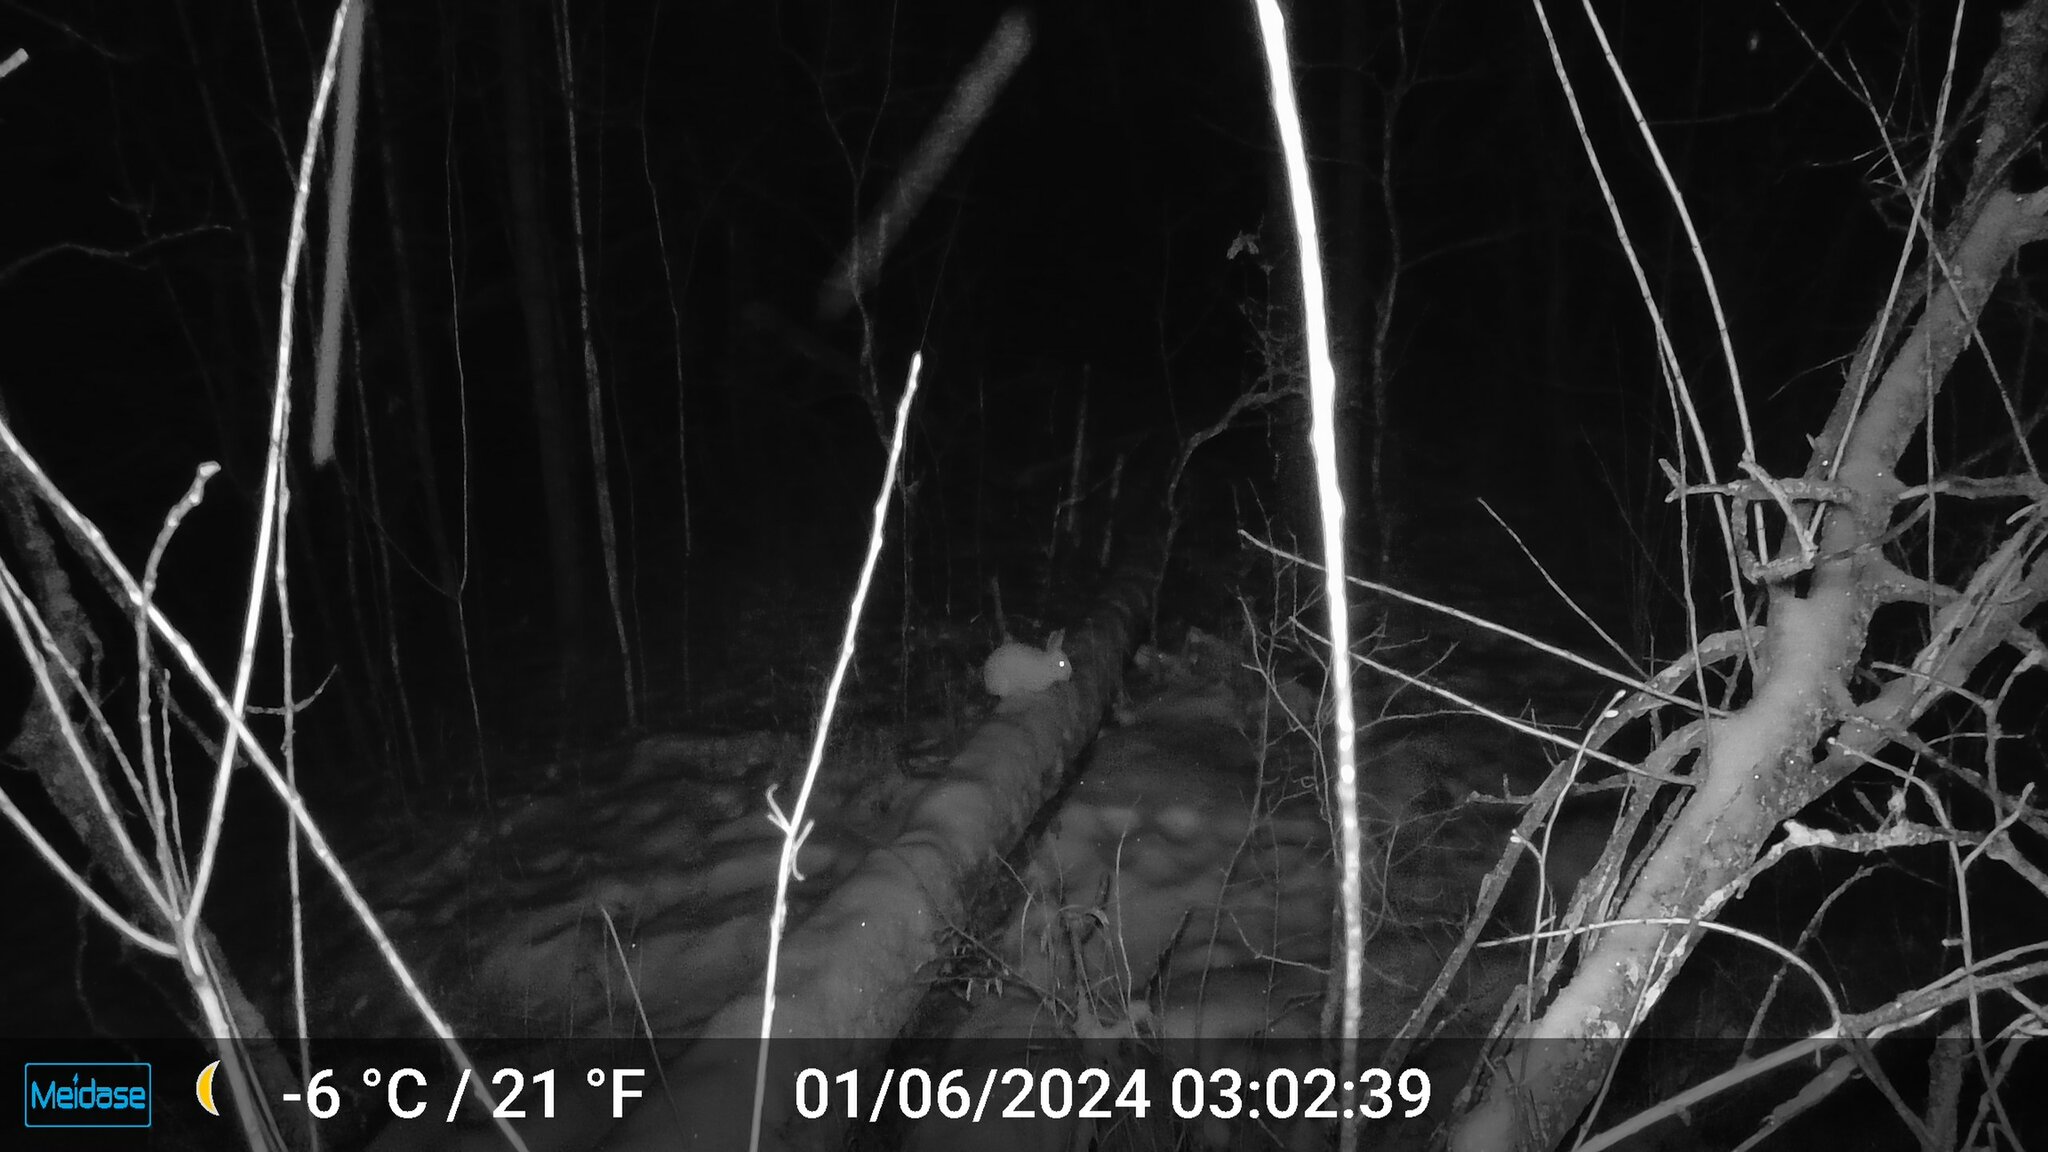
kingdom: Animalia
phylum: Chordata
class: Mammalia
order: Lagomorpha
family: Leporidae
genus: Lepus
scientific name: Lepus americanus
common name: Snowshoe hare
